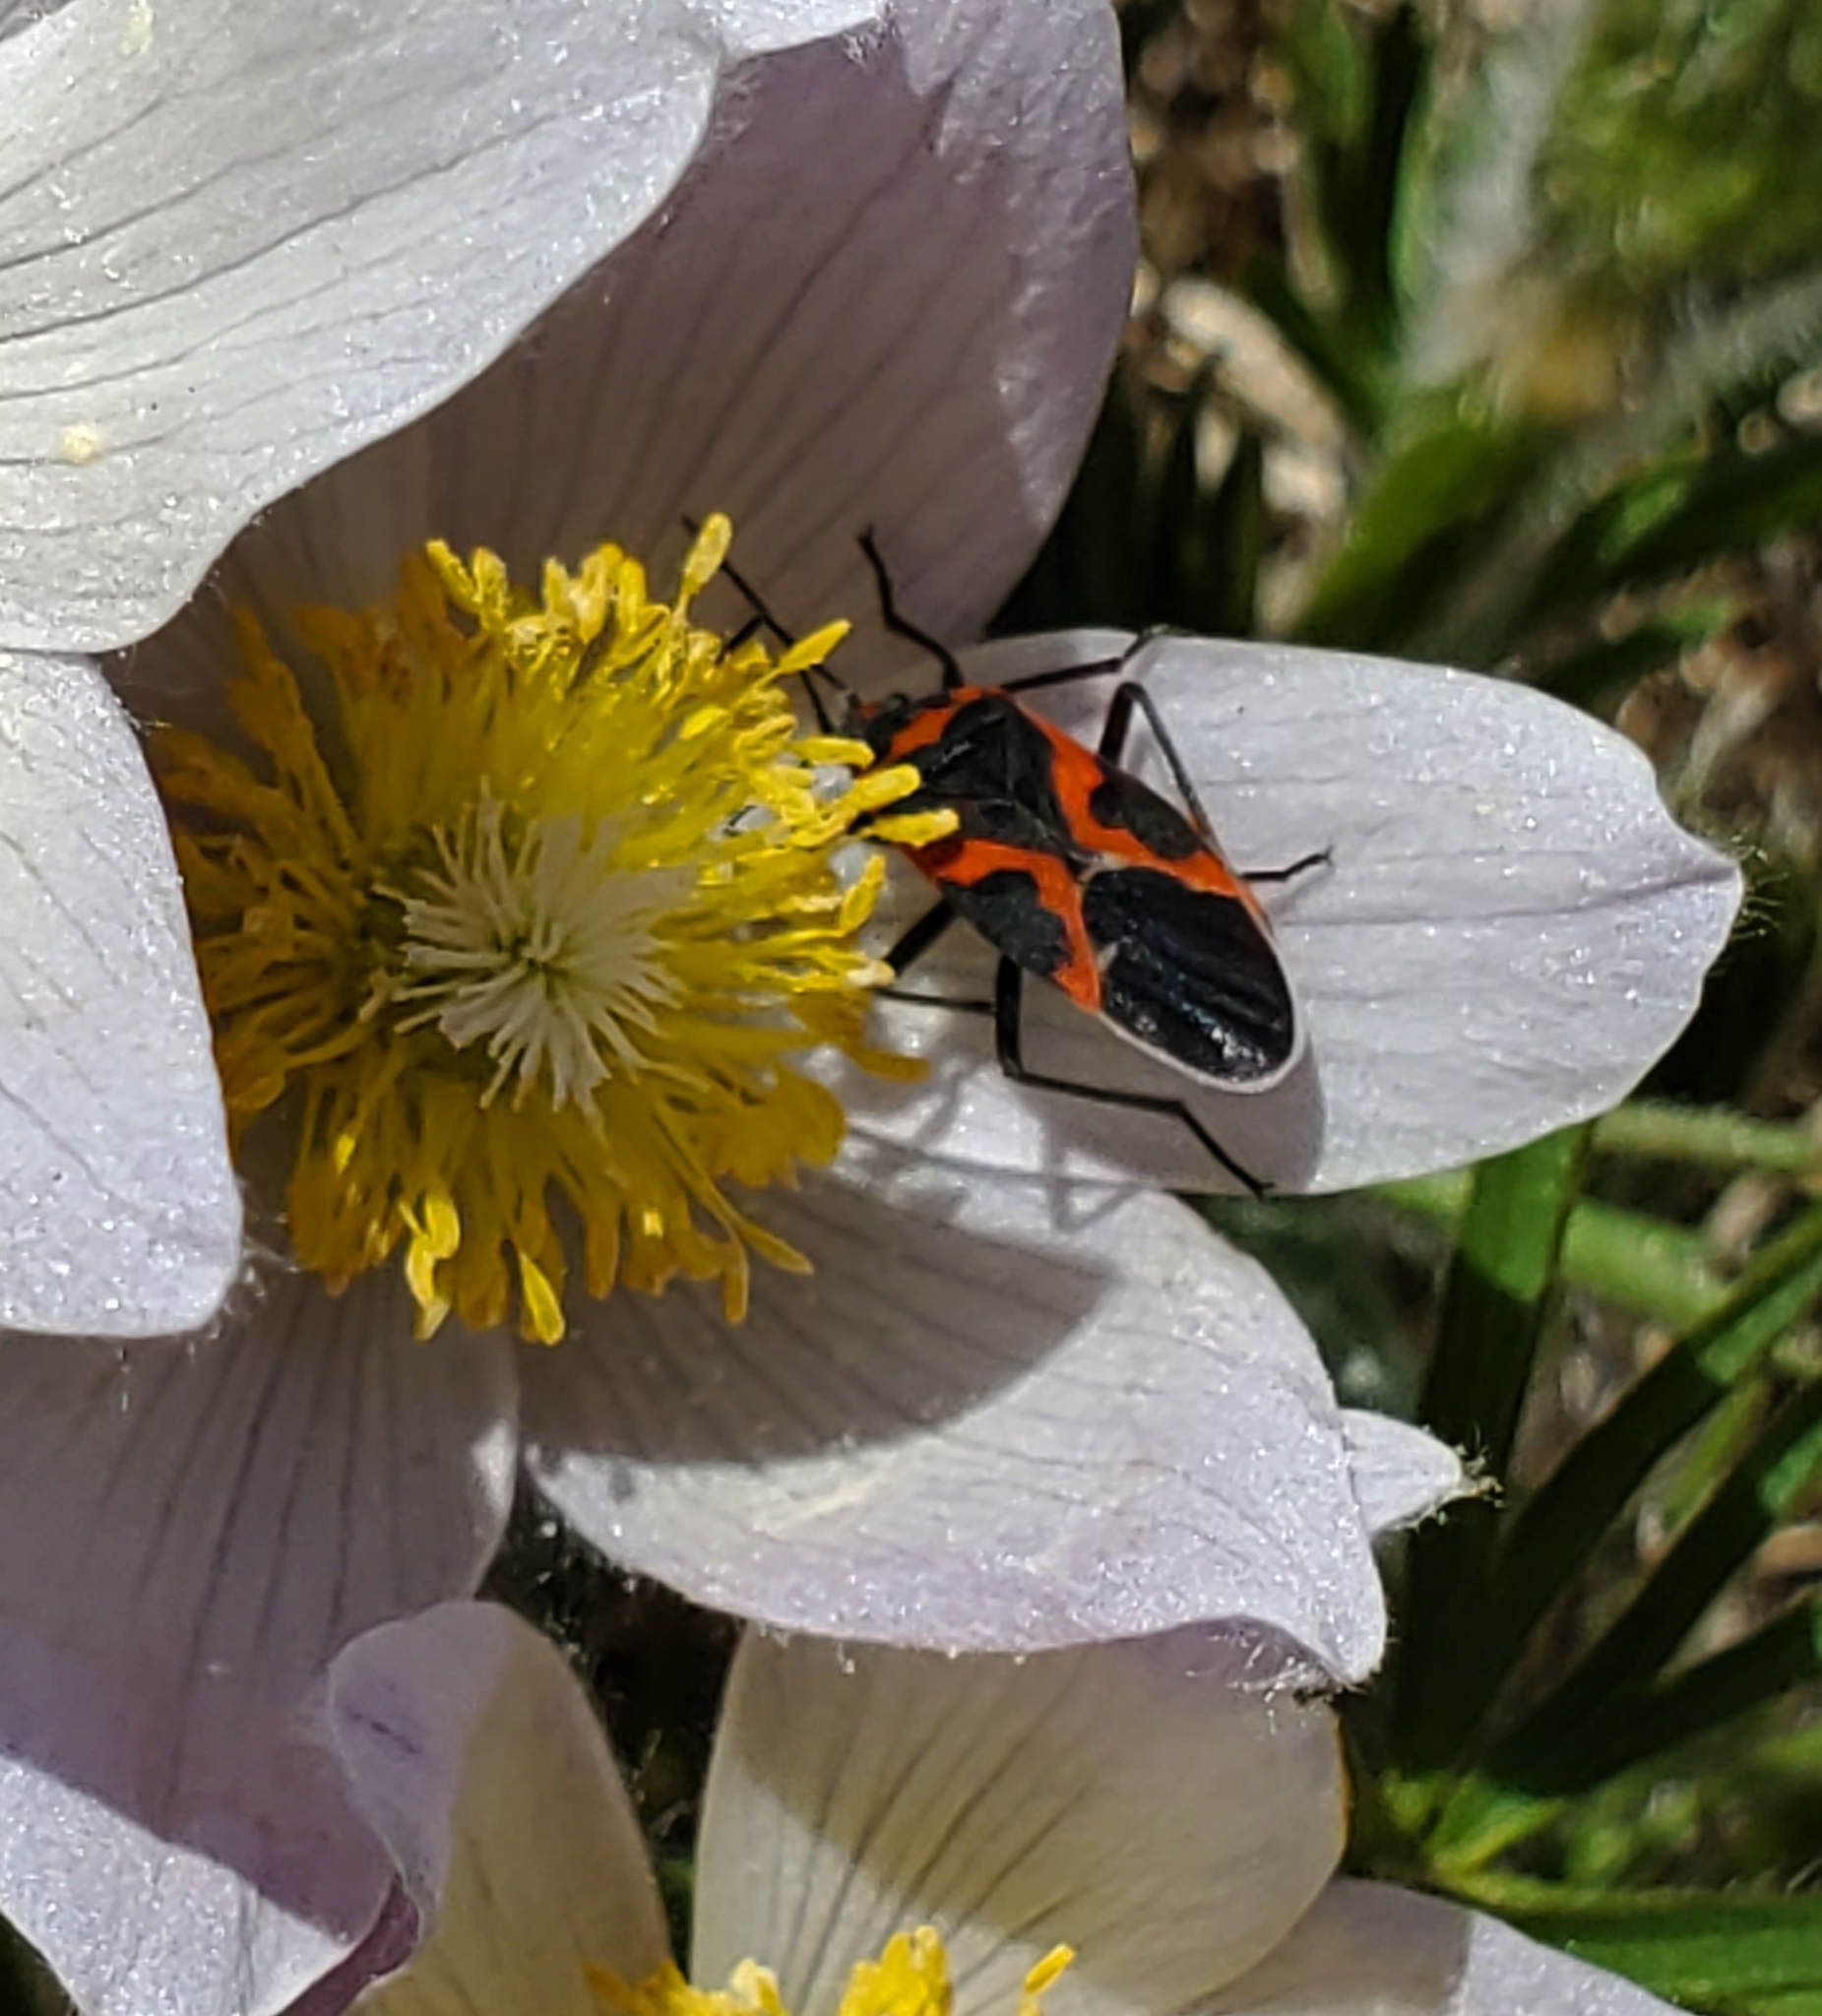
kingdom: Animalia
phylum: Arthropoda
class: Insecta
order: Hemiptera
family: Lygaeidae
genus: Lygaeus
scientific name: Lygaeus kalmii
